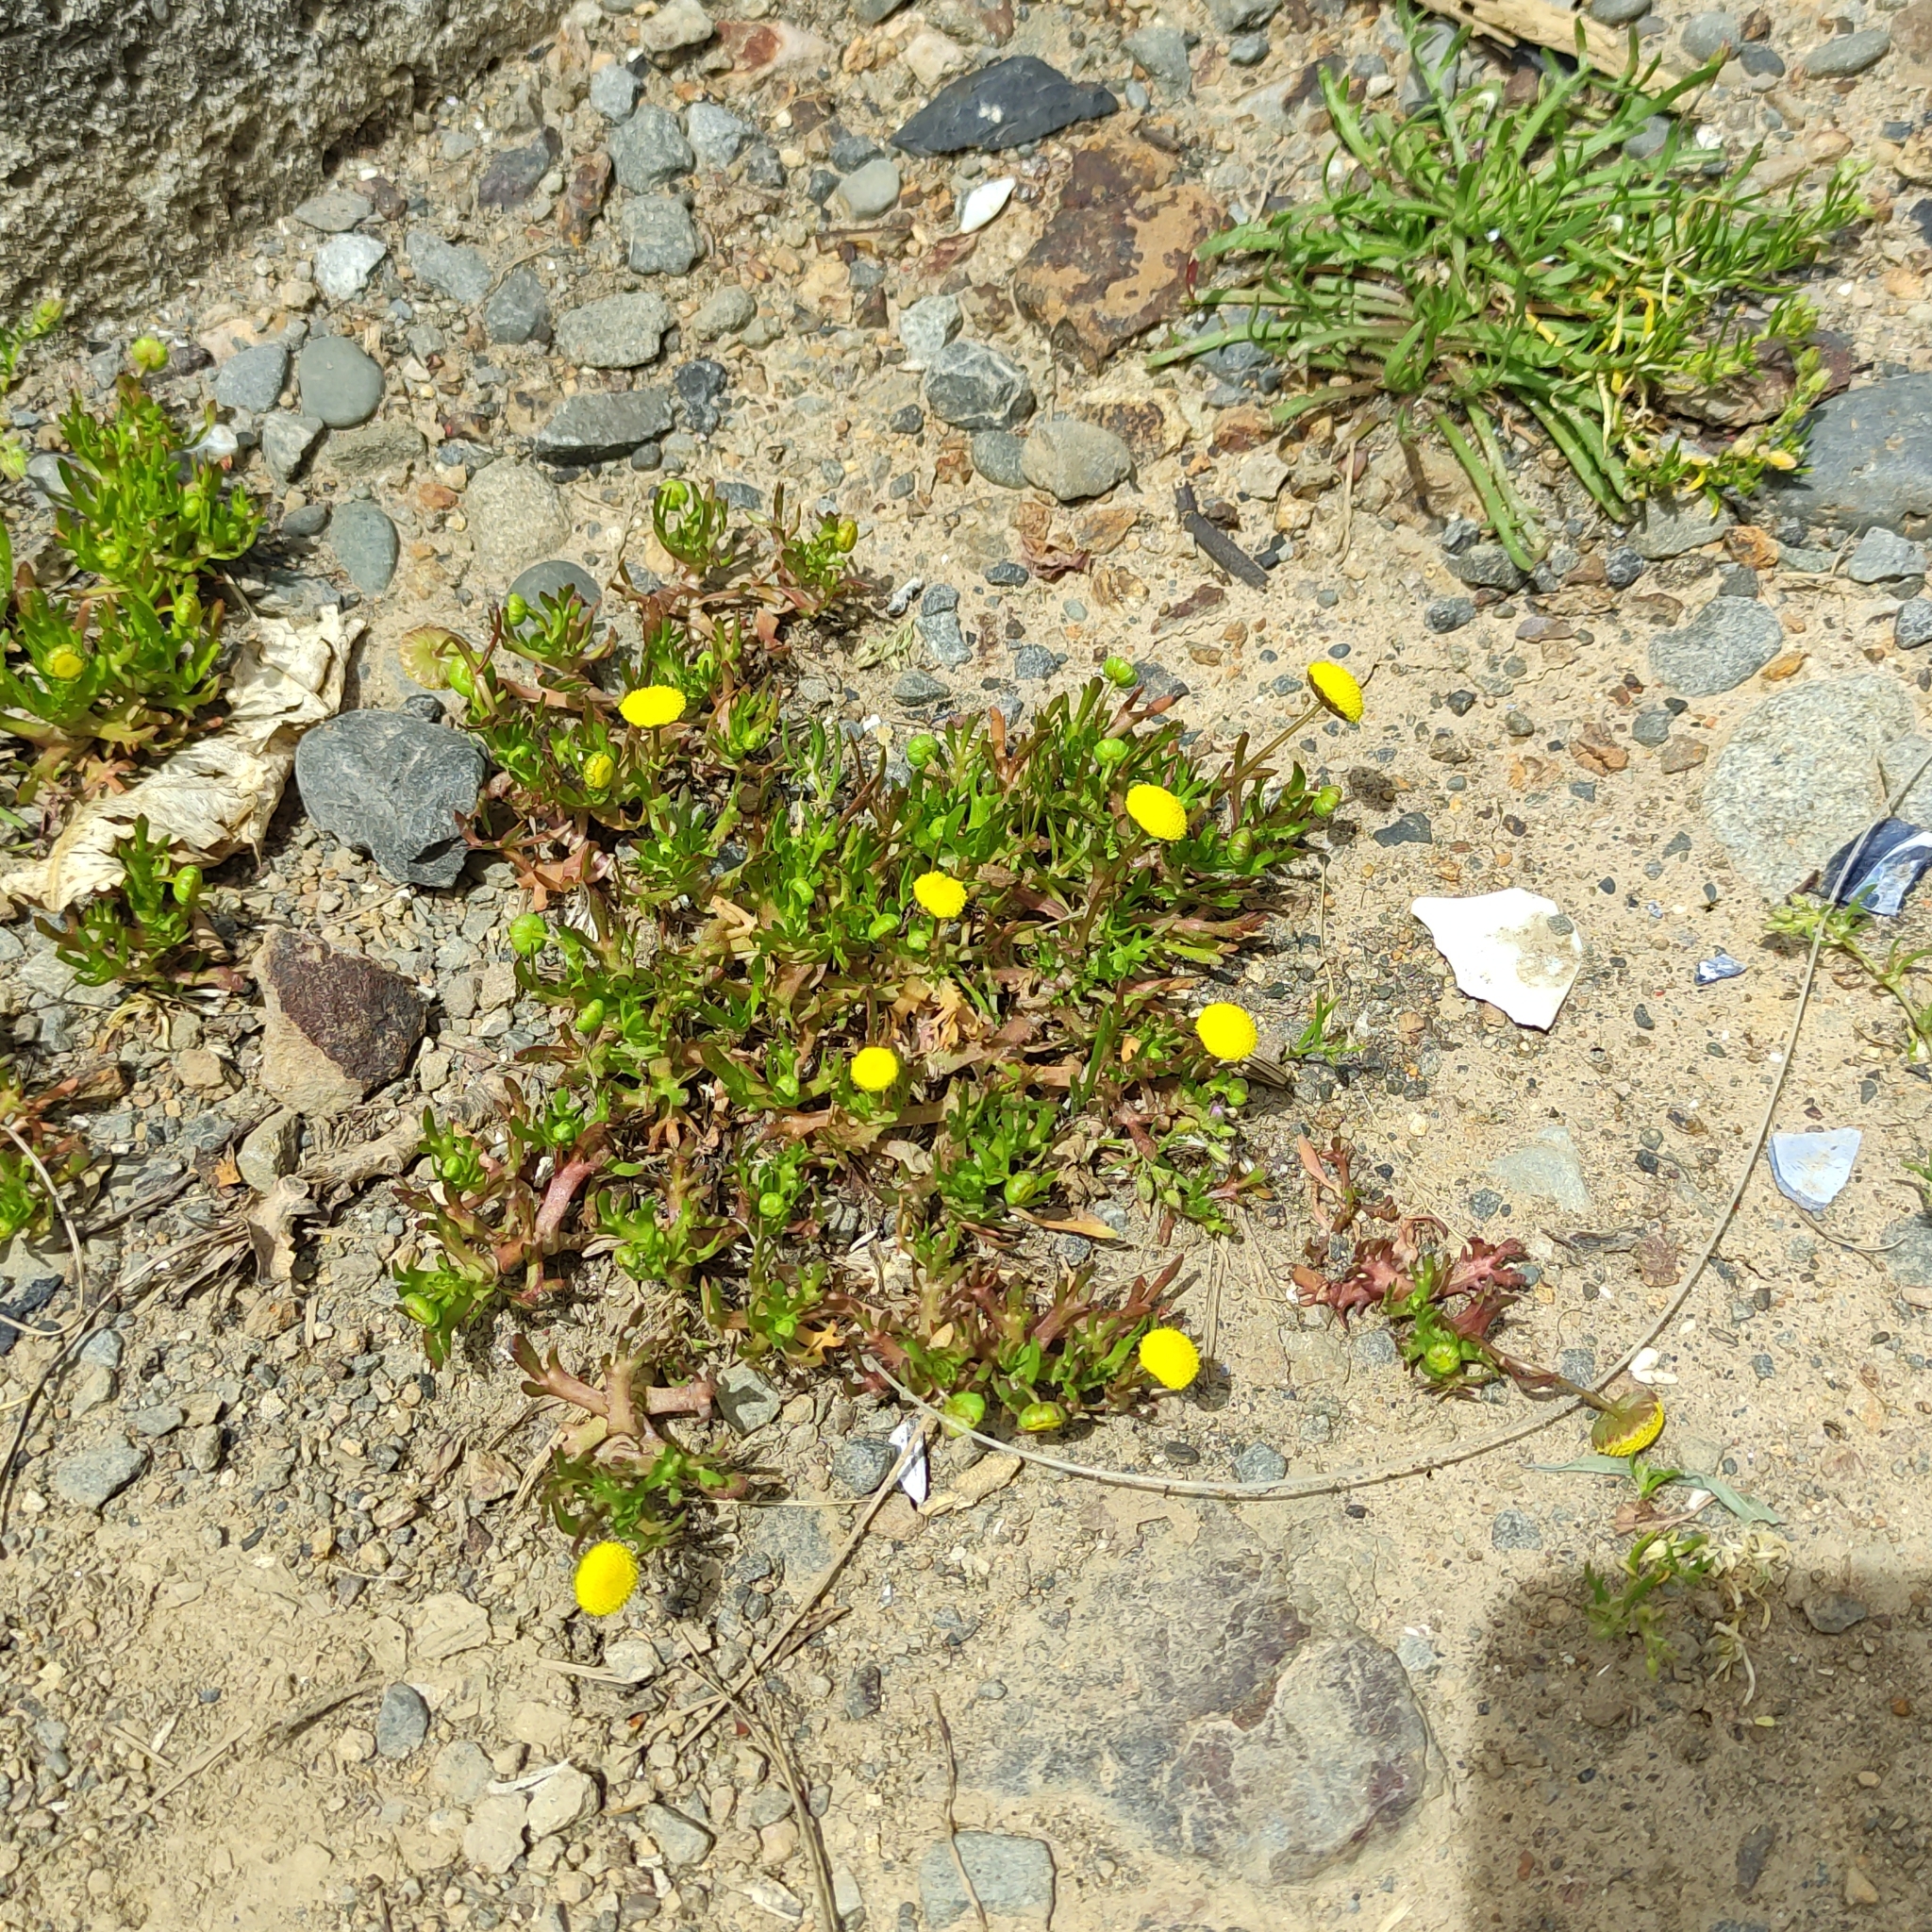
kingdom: Plantae
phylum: Tracheophyta
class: Magnoliopsida
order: Asterales
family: Asteraceae
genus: Cotula
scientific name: Cotula coronopifolia
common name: Buttonweed
